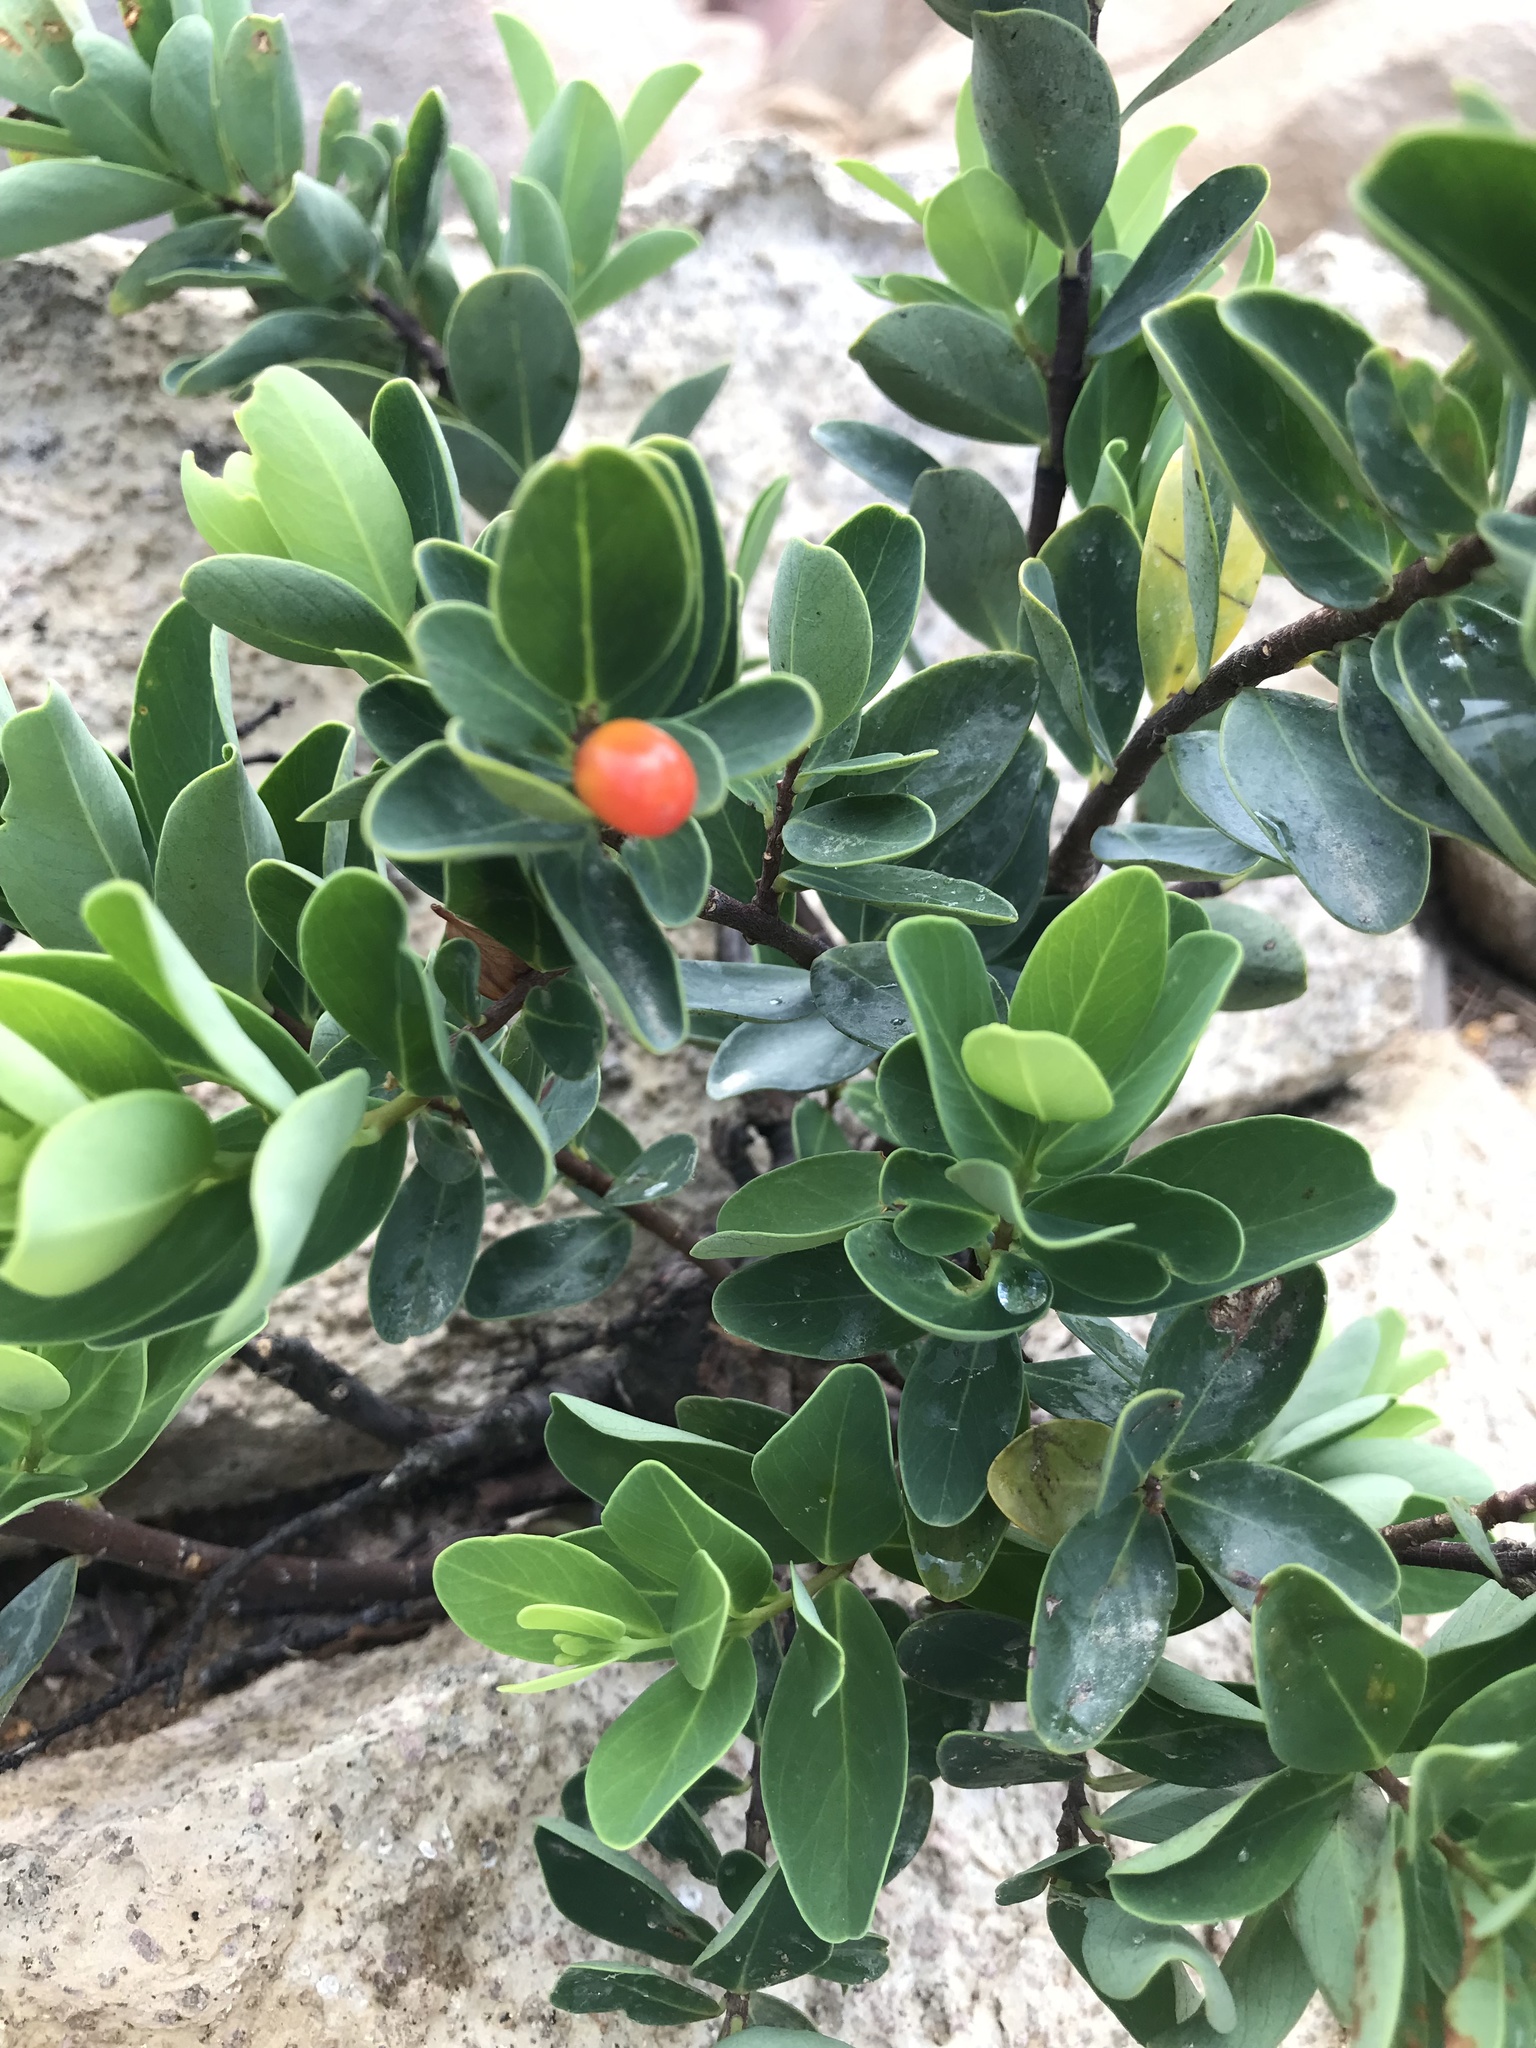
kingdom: Plantae
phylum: Tracheophyta
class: Magnoliopsida
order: Malvales
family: Thymelaeaceae
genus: Wikstroemia
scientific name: Wikstroemia indica
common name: Tiebush
